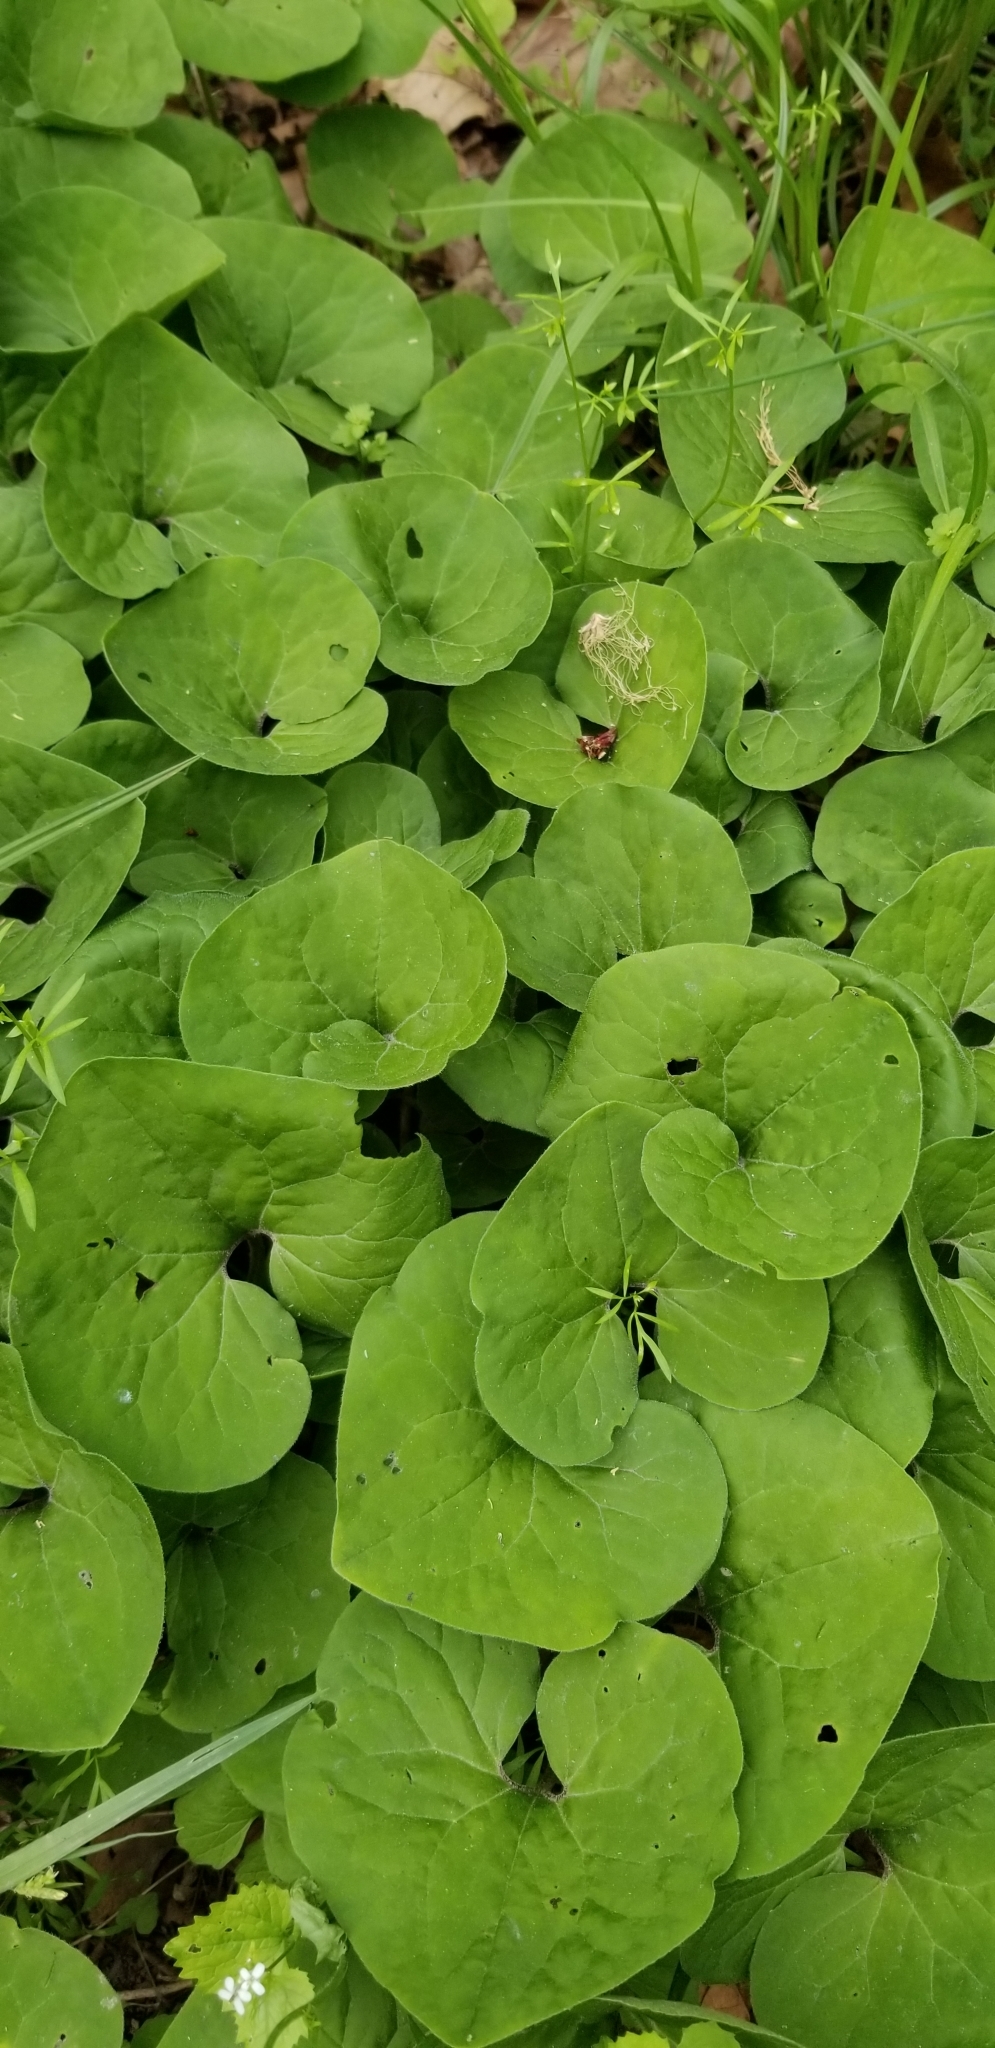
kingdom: Plantae
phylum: Tracheophyta
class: Magnoliopsida
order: Piperales
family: Aristolochiaceae
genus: Asarum
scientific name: Asarum canadense
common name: Wild ginger
